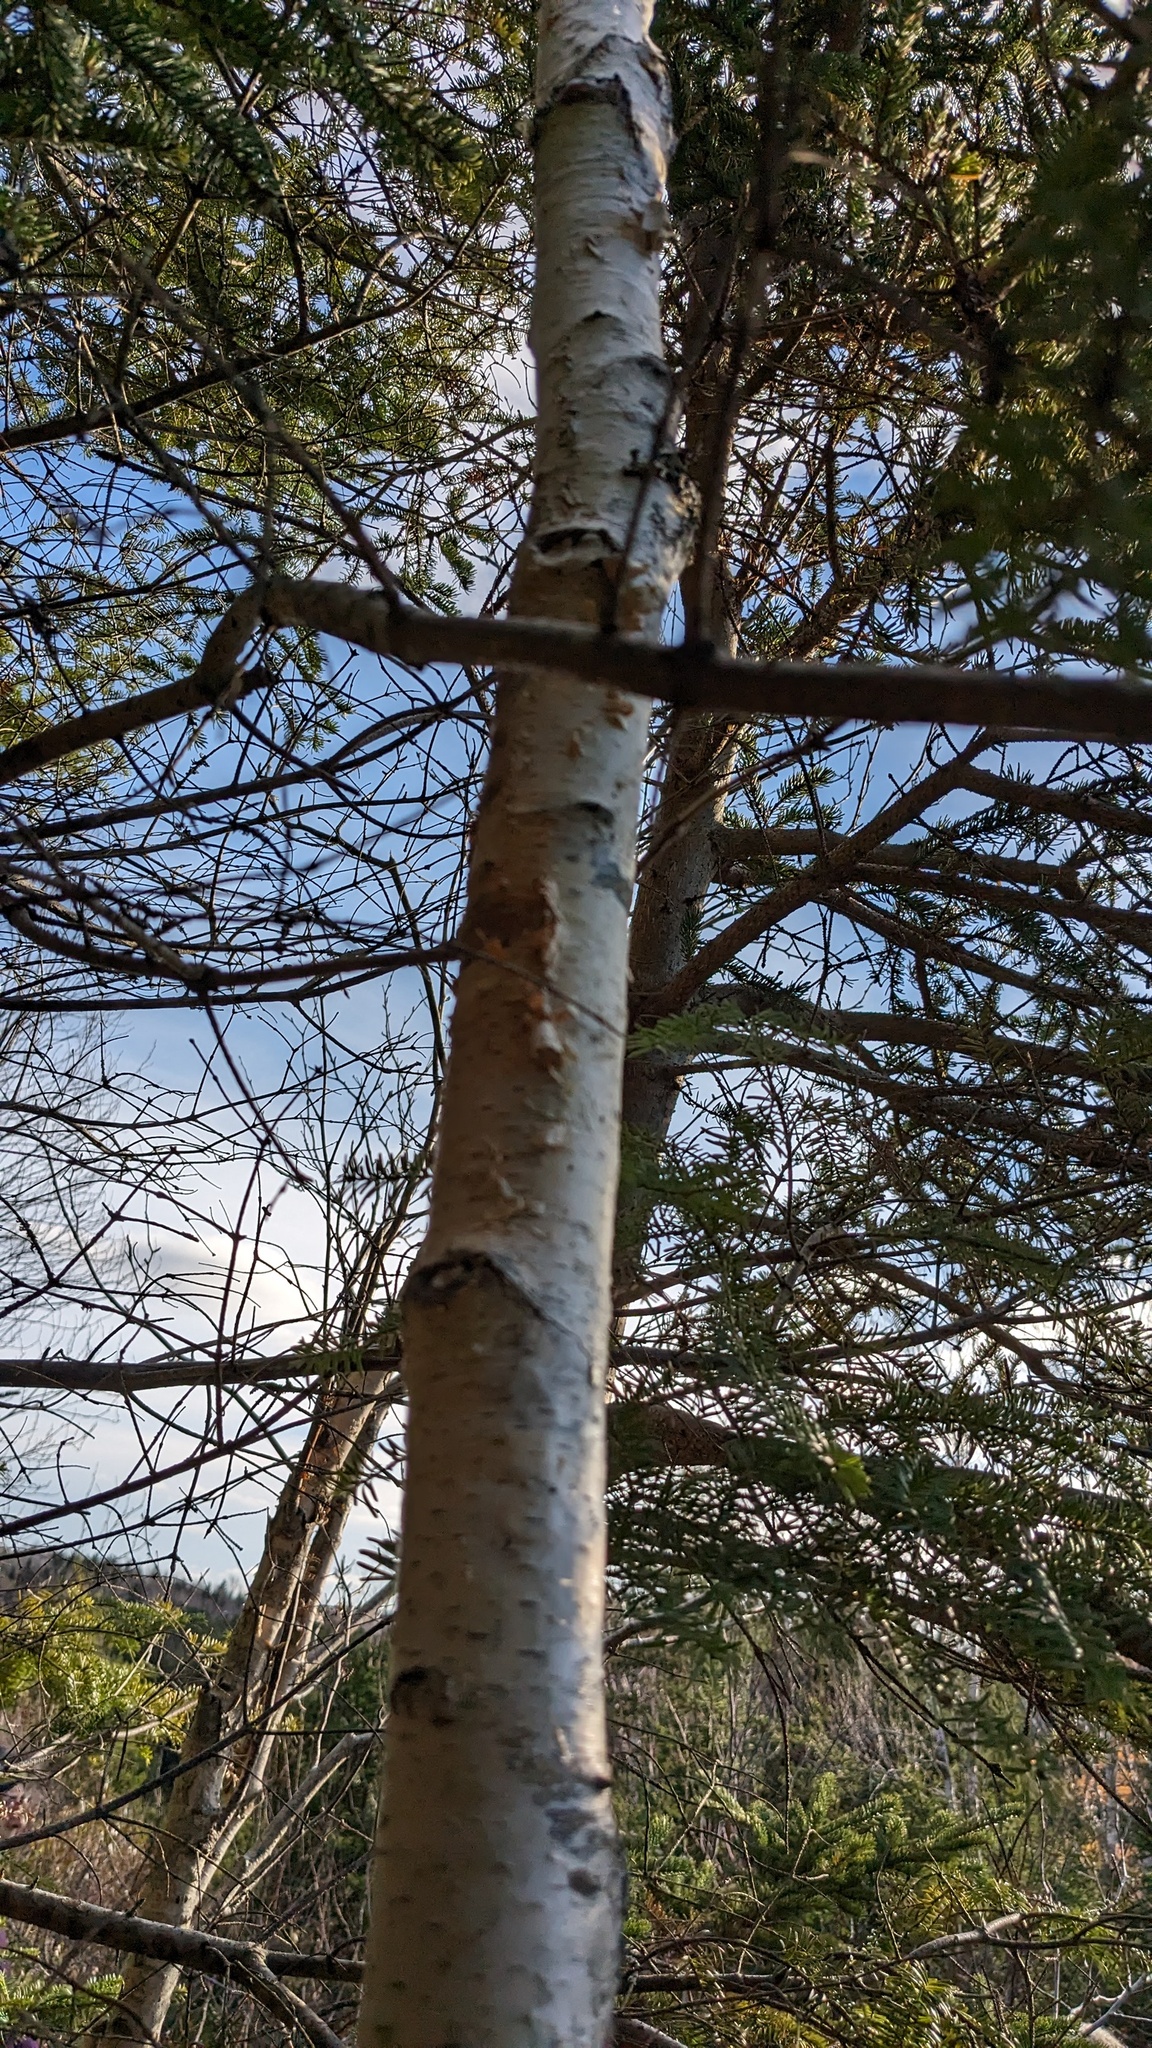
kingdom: Plantae
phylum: Tracheophyta
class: Magnoliopsida
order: Fagales
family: Betulaceae
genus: Betula
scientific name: Betula papyrifera
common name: Paper birch
